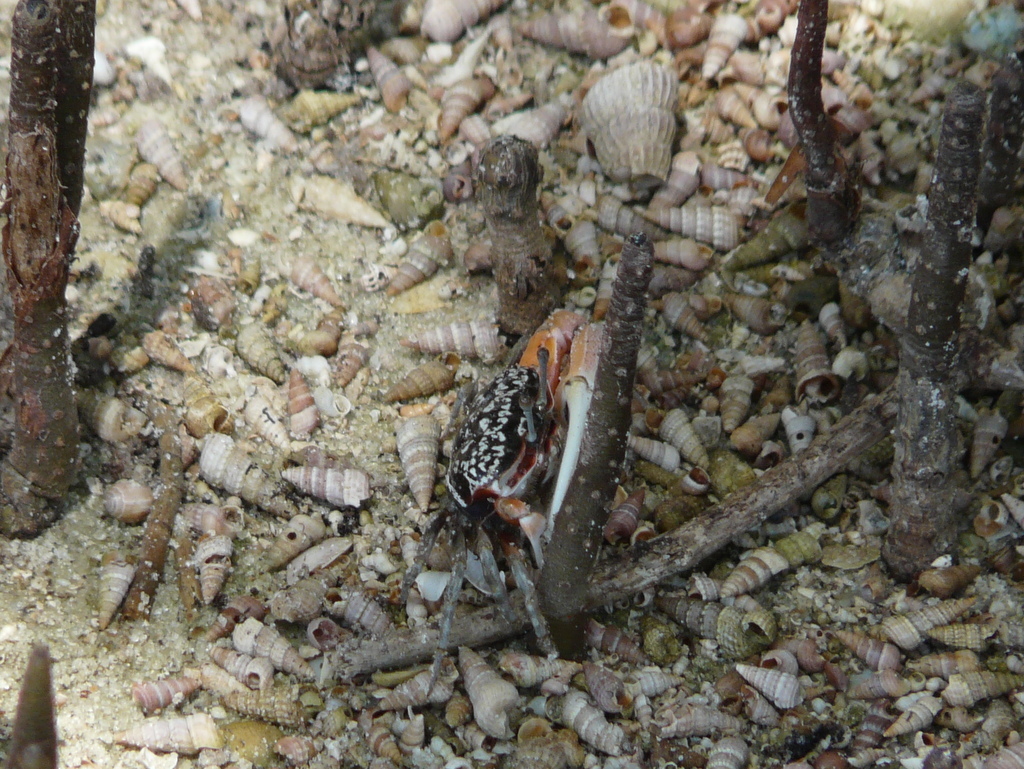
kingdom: Animalia
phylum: Arthropoda
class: Malacostraca
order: Decapoda
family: Ocypodidae
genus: Austruca
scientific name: Austruca occidentalis
